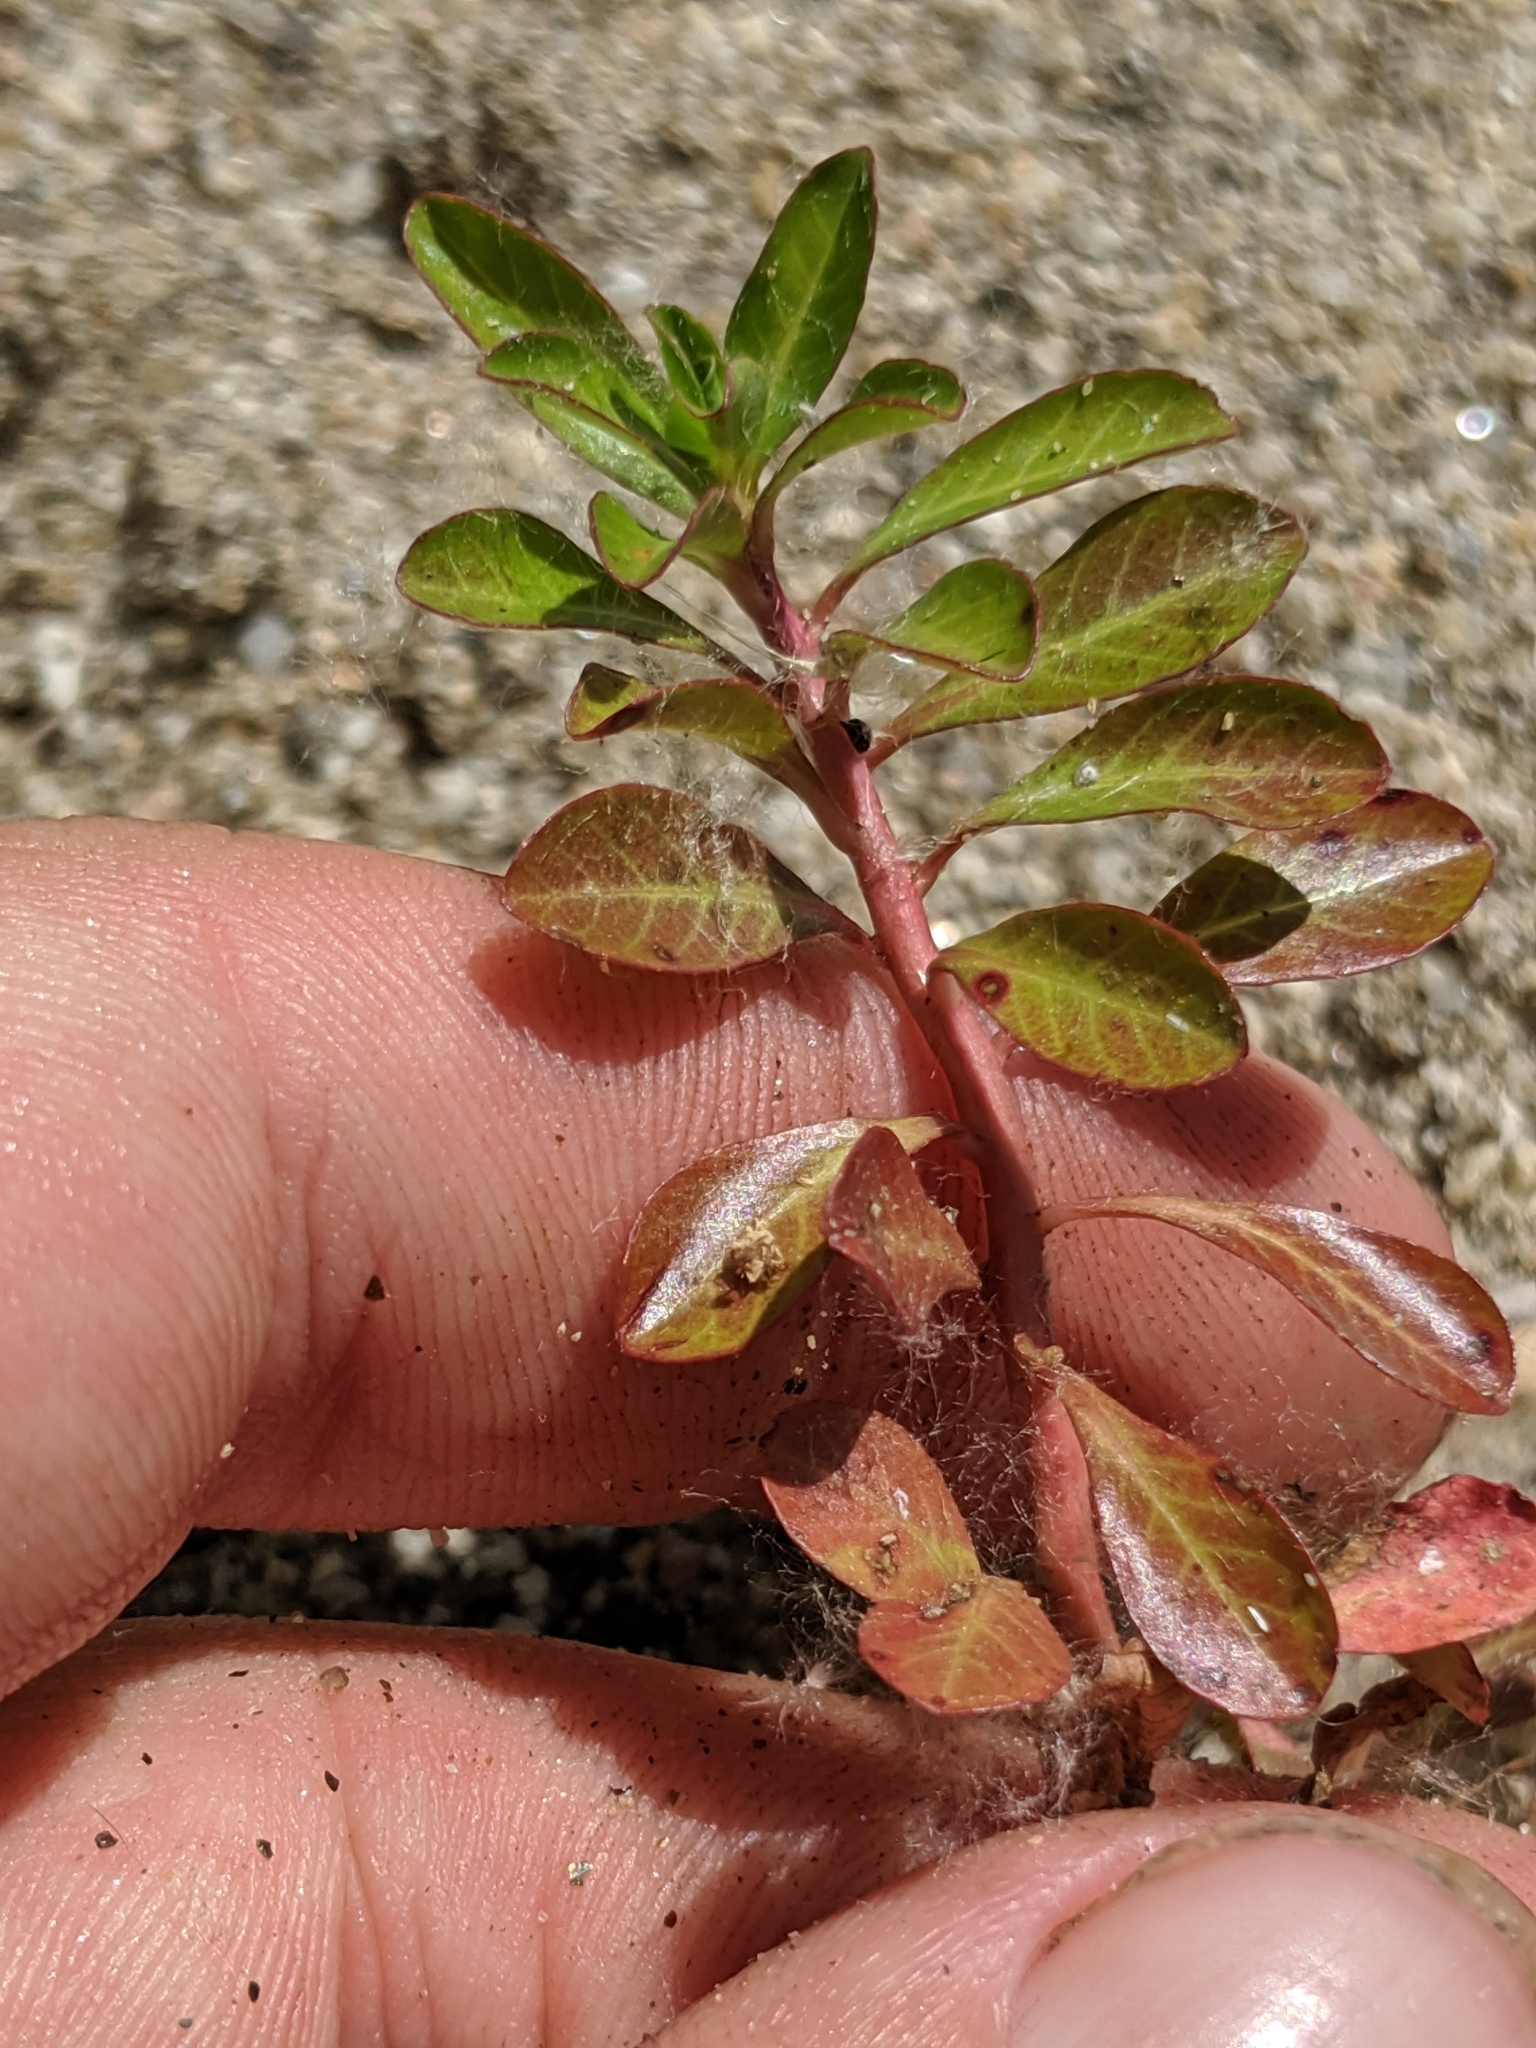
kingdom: Plantae
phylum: Tracheophyta
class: Magnoliopsida
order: Myrtales
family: Onagraceae
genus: Ludwigia
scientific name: Ludwigia peploides
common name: Floating primrose-willow
